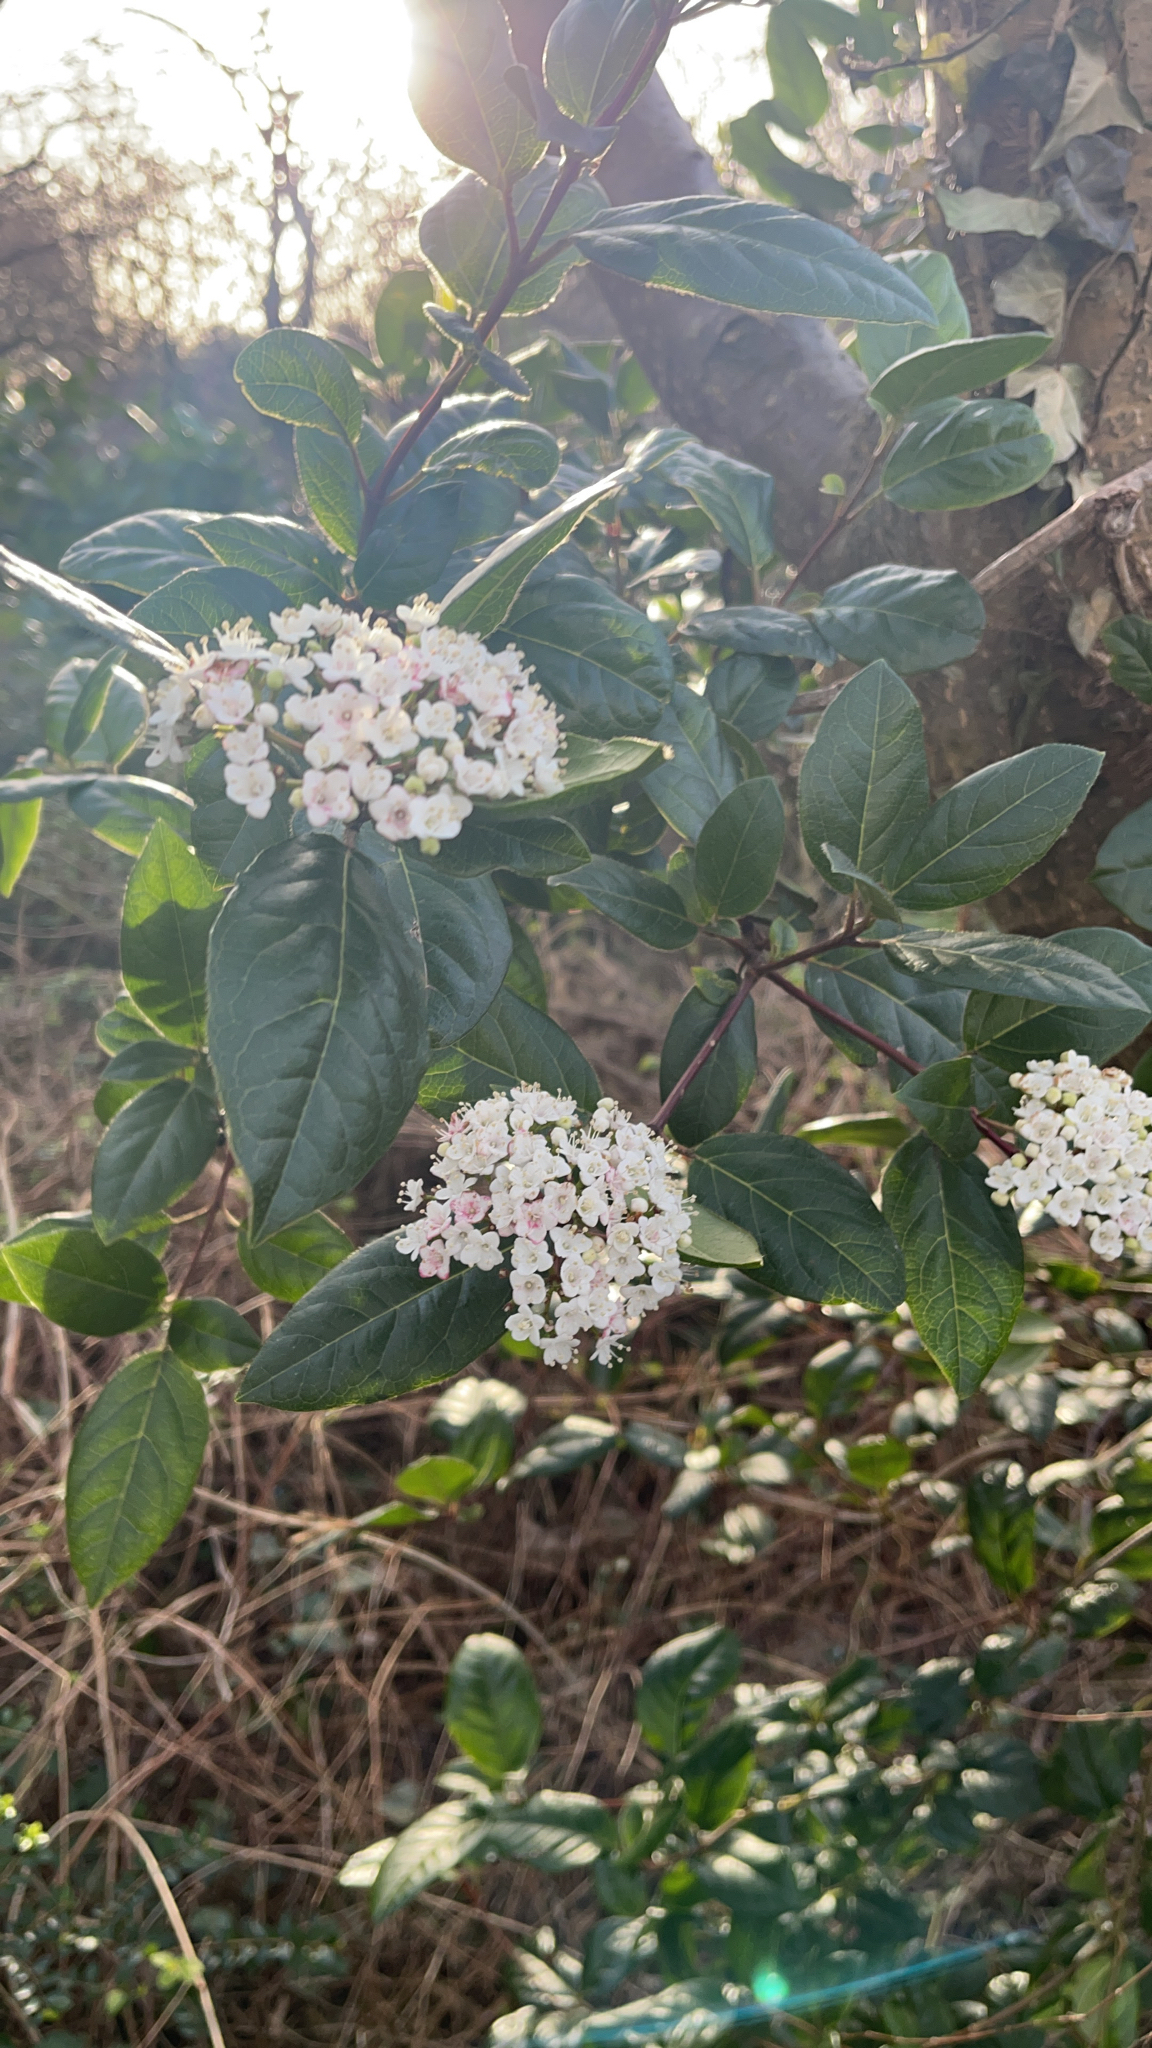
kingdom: Plantae
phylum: Tracheophyta
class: Magnoliopsida
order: Dipsacales
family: Viburnaceae
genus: Viburnum
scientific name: Viburnum tinus
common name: Laurustinus
